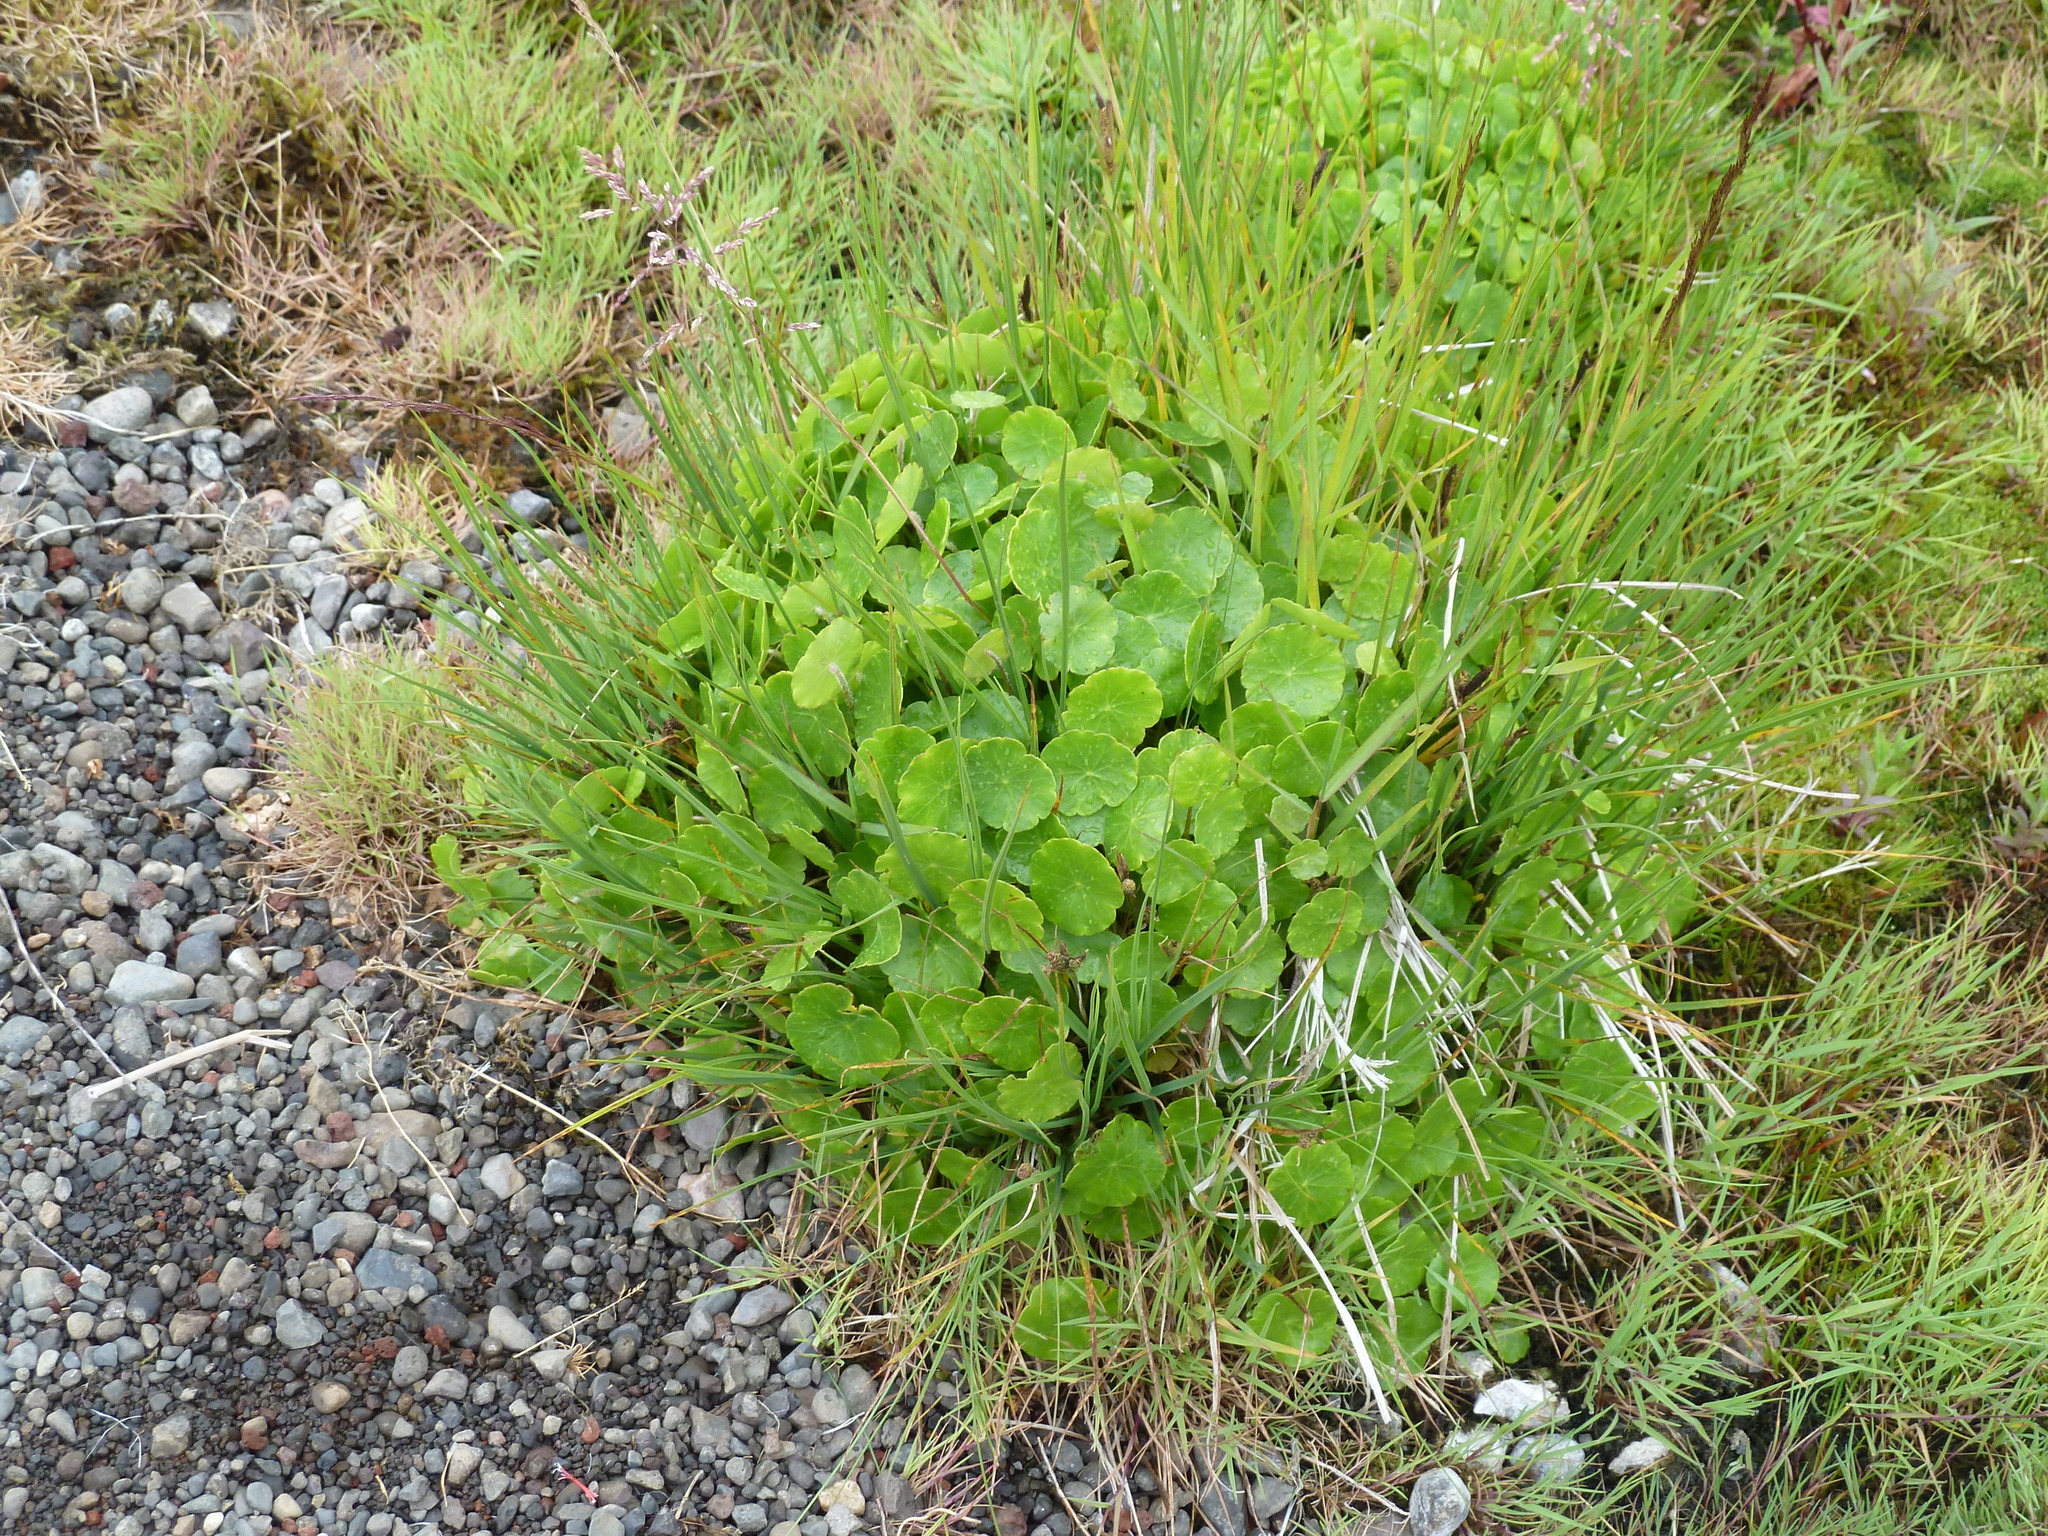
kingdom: Plantae
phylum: Tracheophyta
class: Magnoliopsida
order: Apiales
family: Araliaceae
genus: Hydrocotyle
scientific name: Hydrocotyle vulgaris
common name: Marsh pennywort
